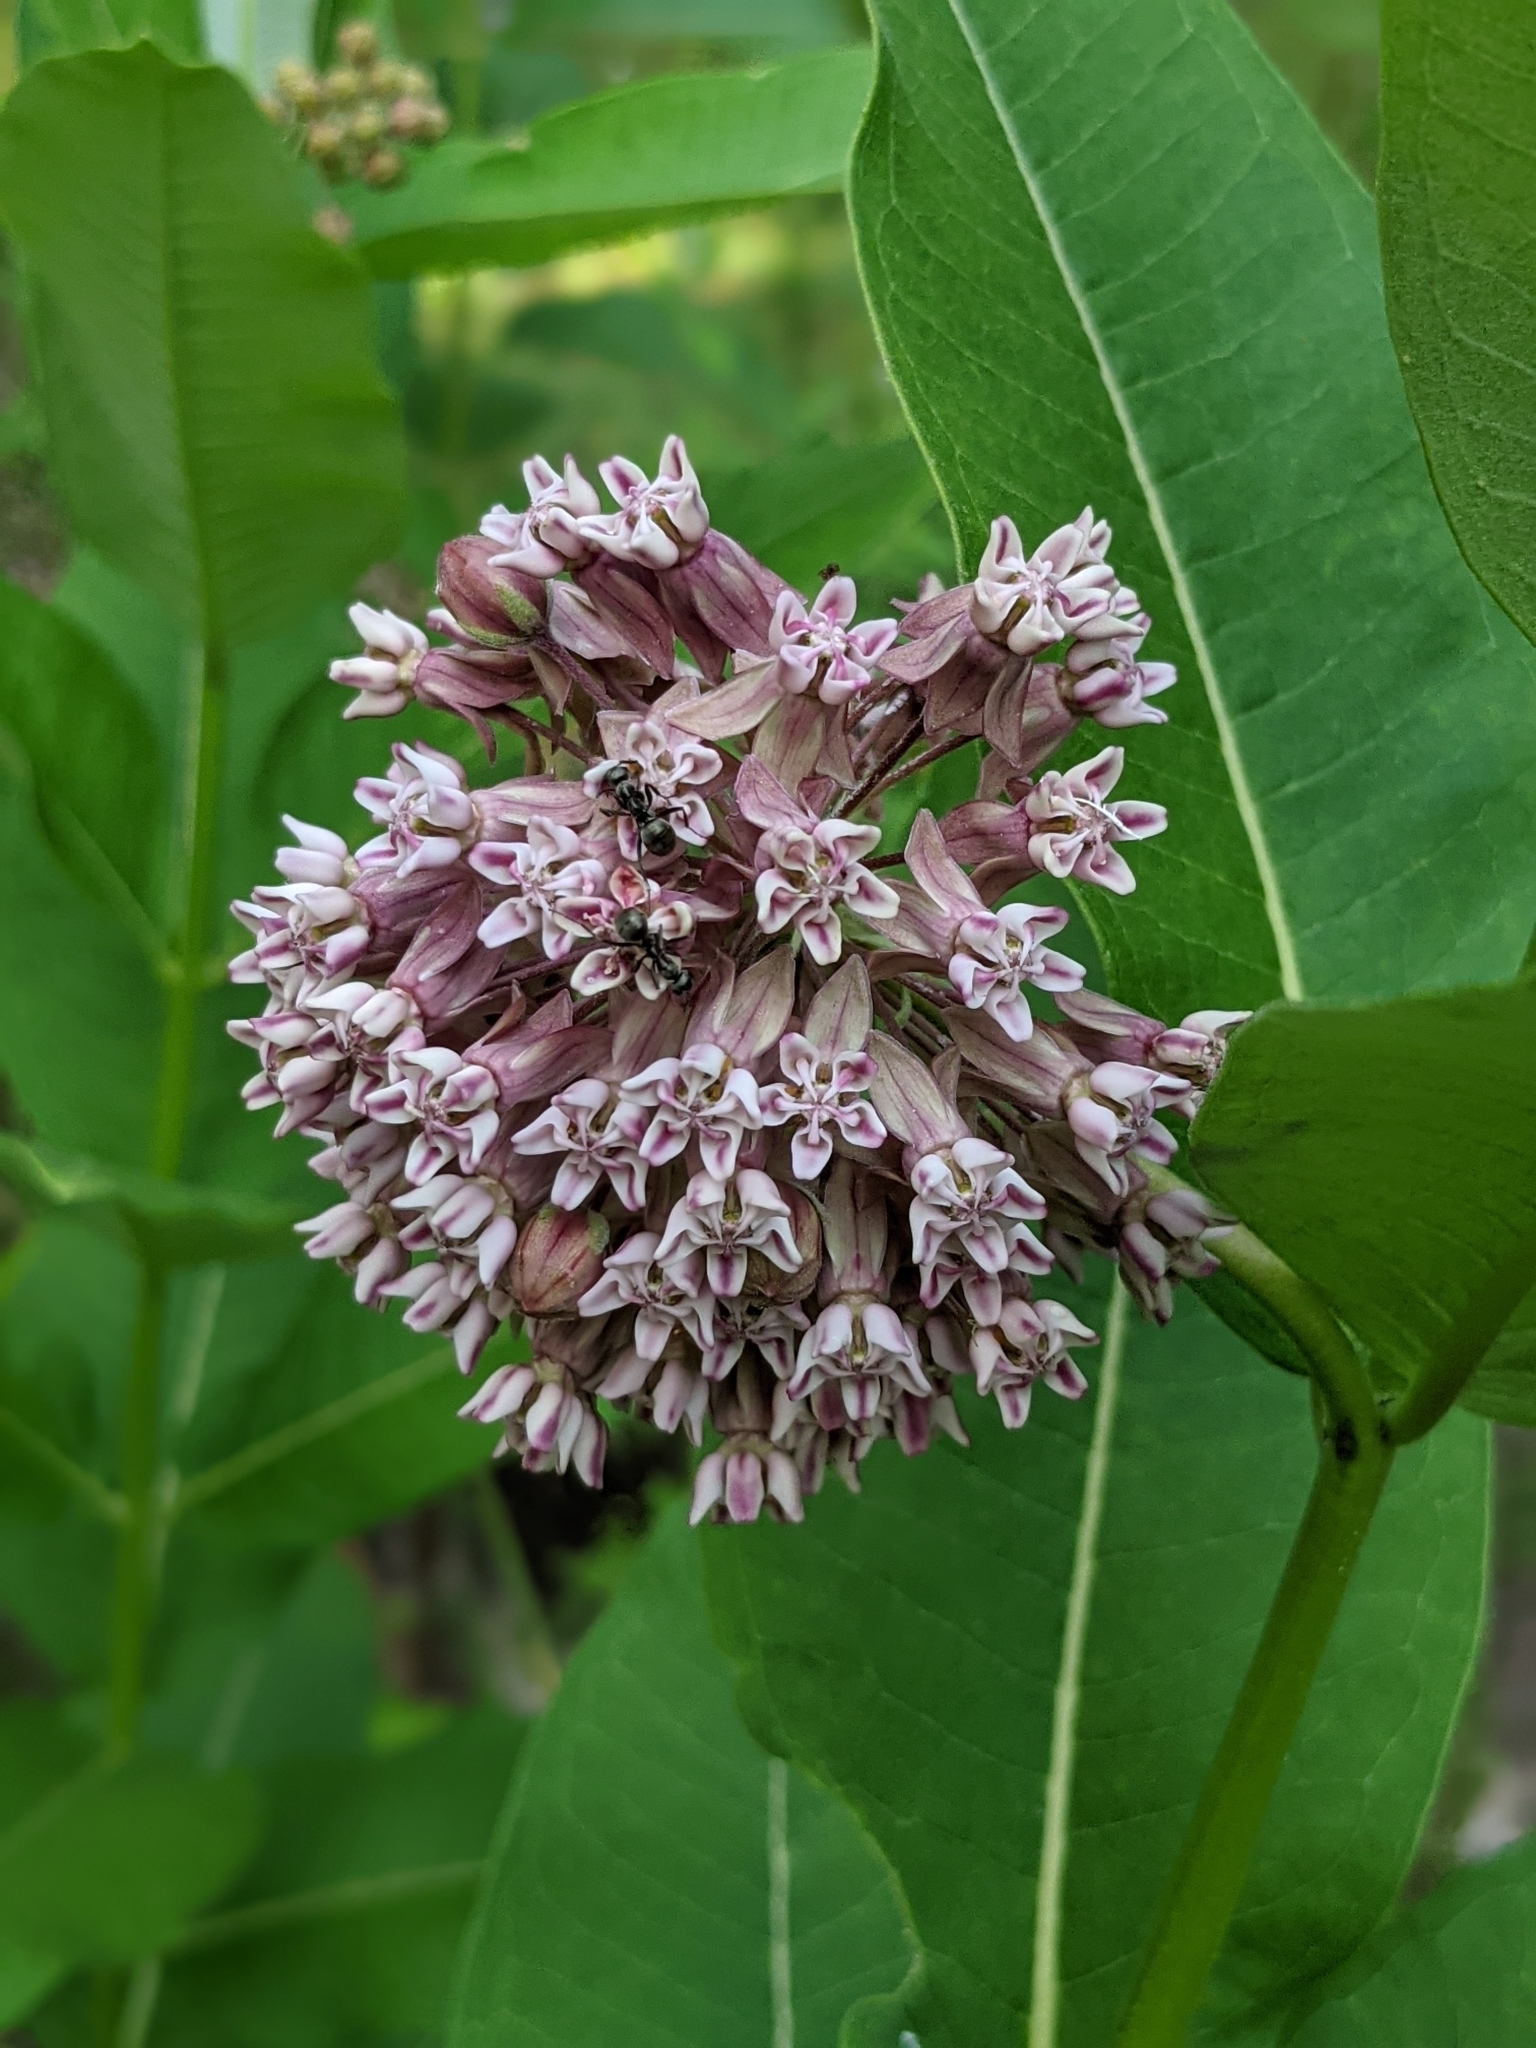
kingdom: Plantae
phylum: Tracheophyta
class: Magnoliopsida
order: Gentianales
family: Apocynaceae
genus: Asclepias
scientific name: Asclepias syriaca
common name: Common milkweed
